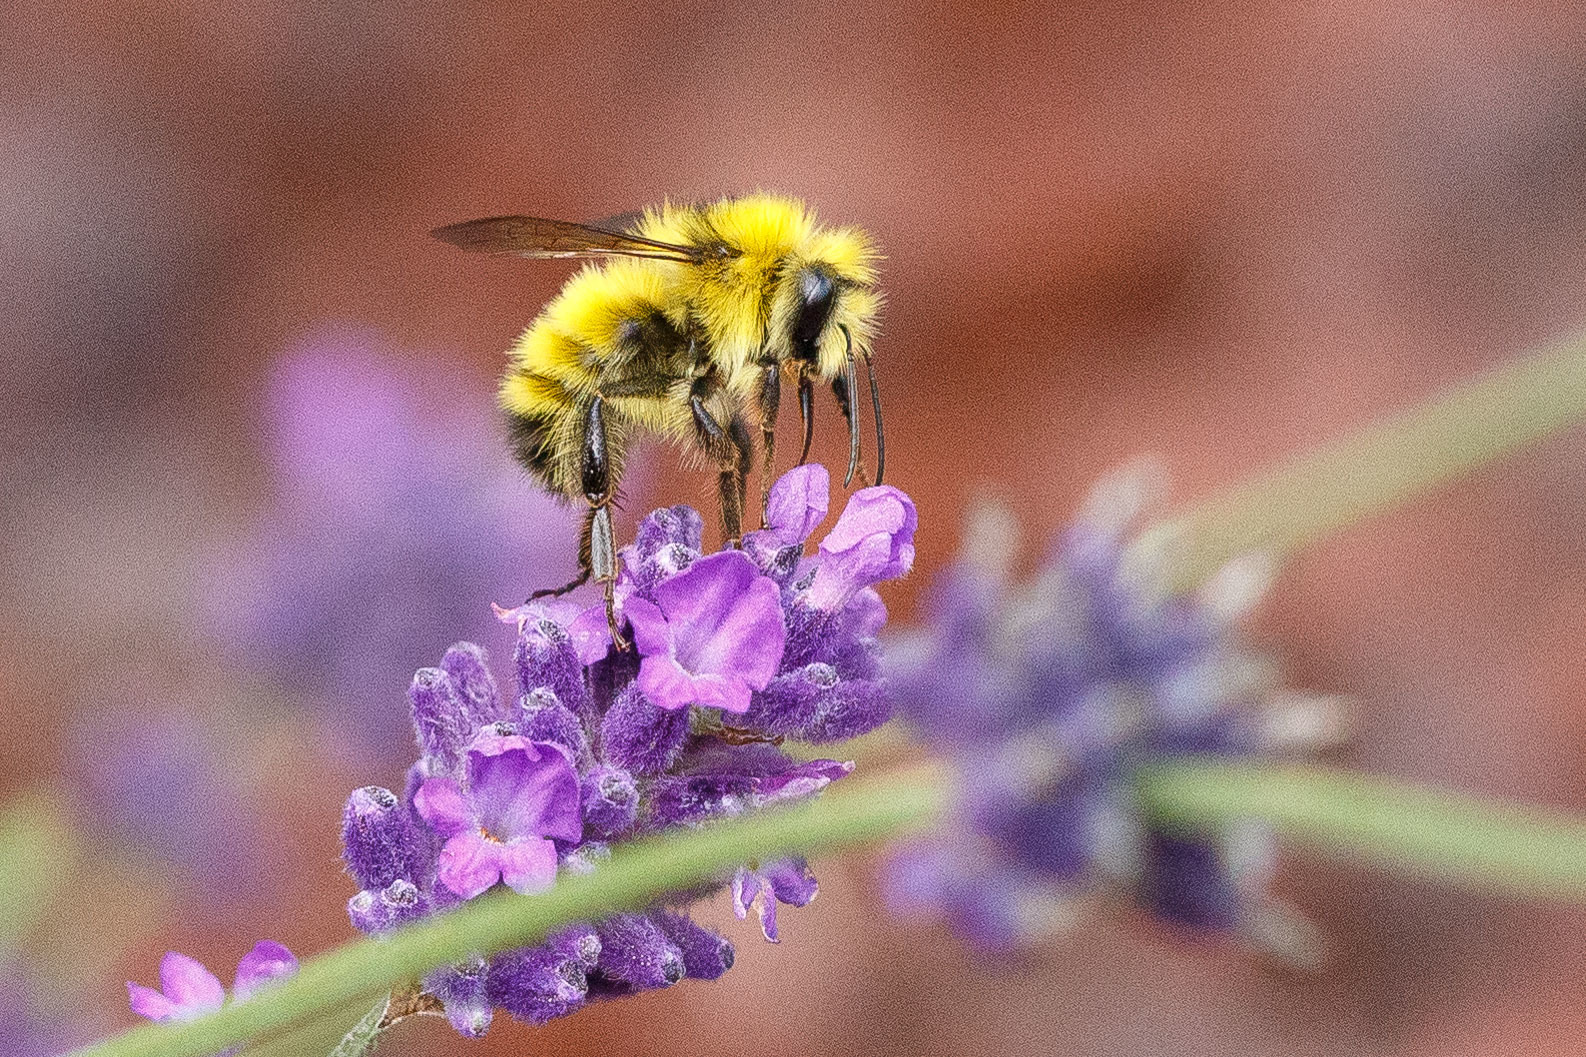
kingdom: Animalia
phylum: Arthropoda
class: Insecta
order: Hymenoptera
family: Apidae
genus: Bombus
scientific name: Bombus flavifrons
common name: Yellow head bumble bee
